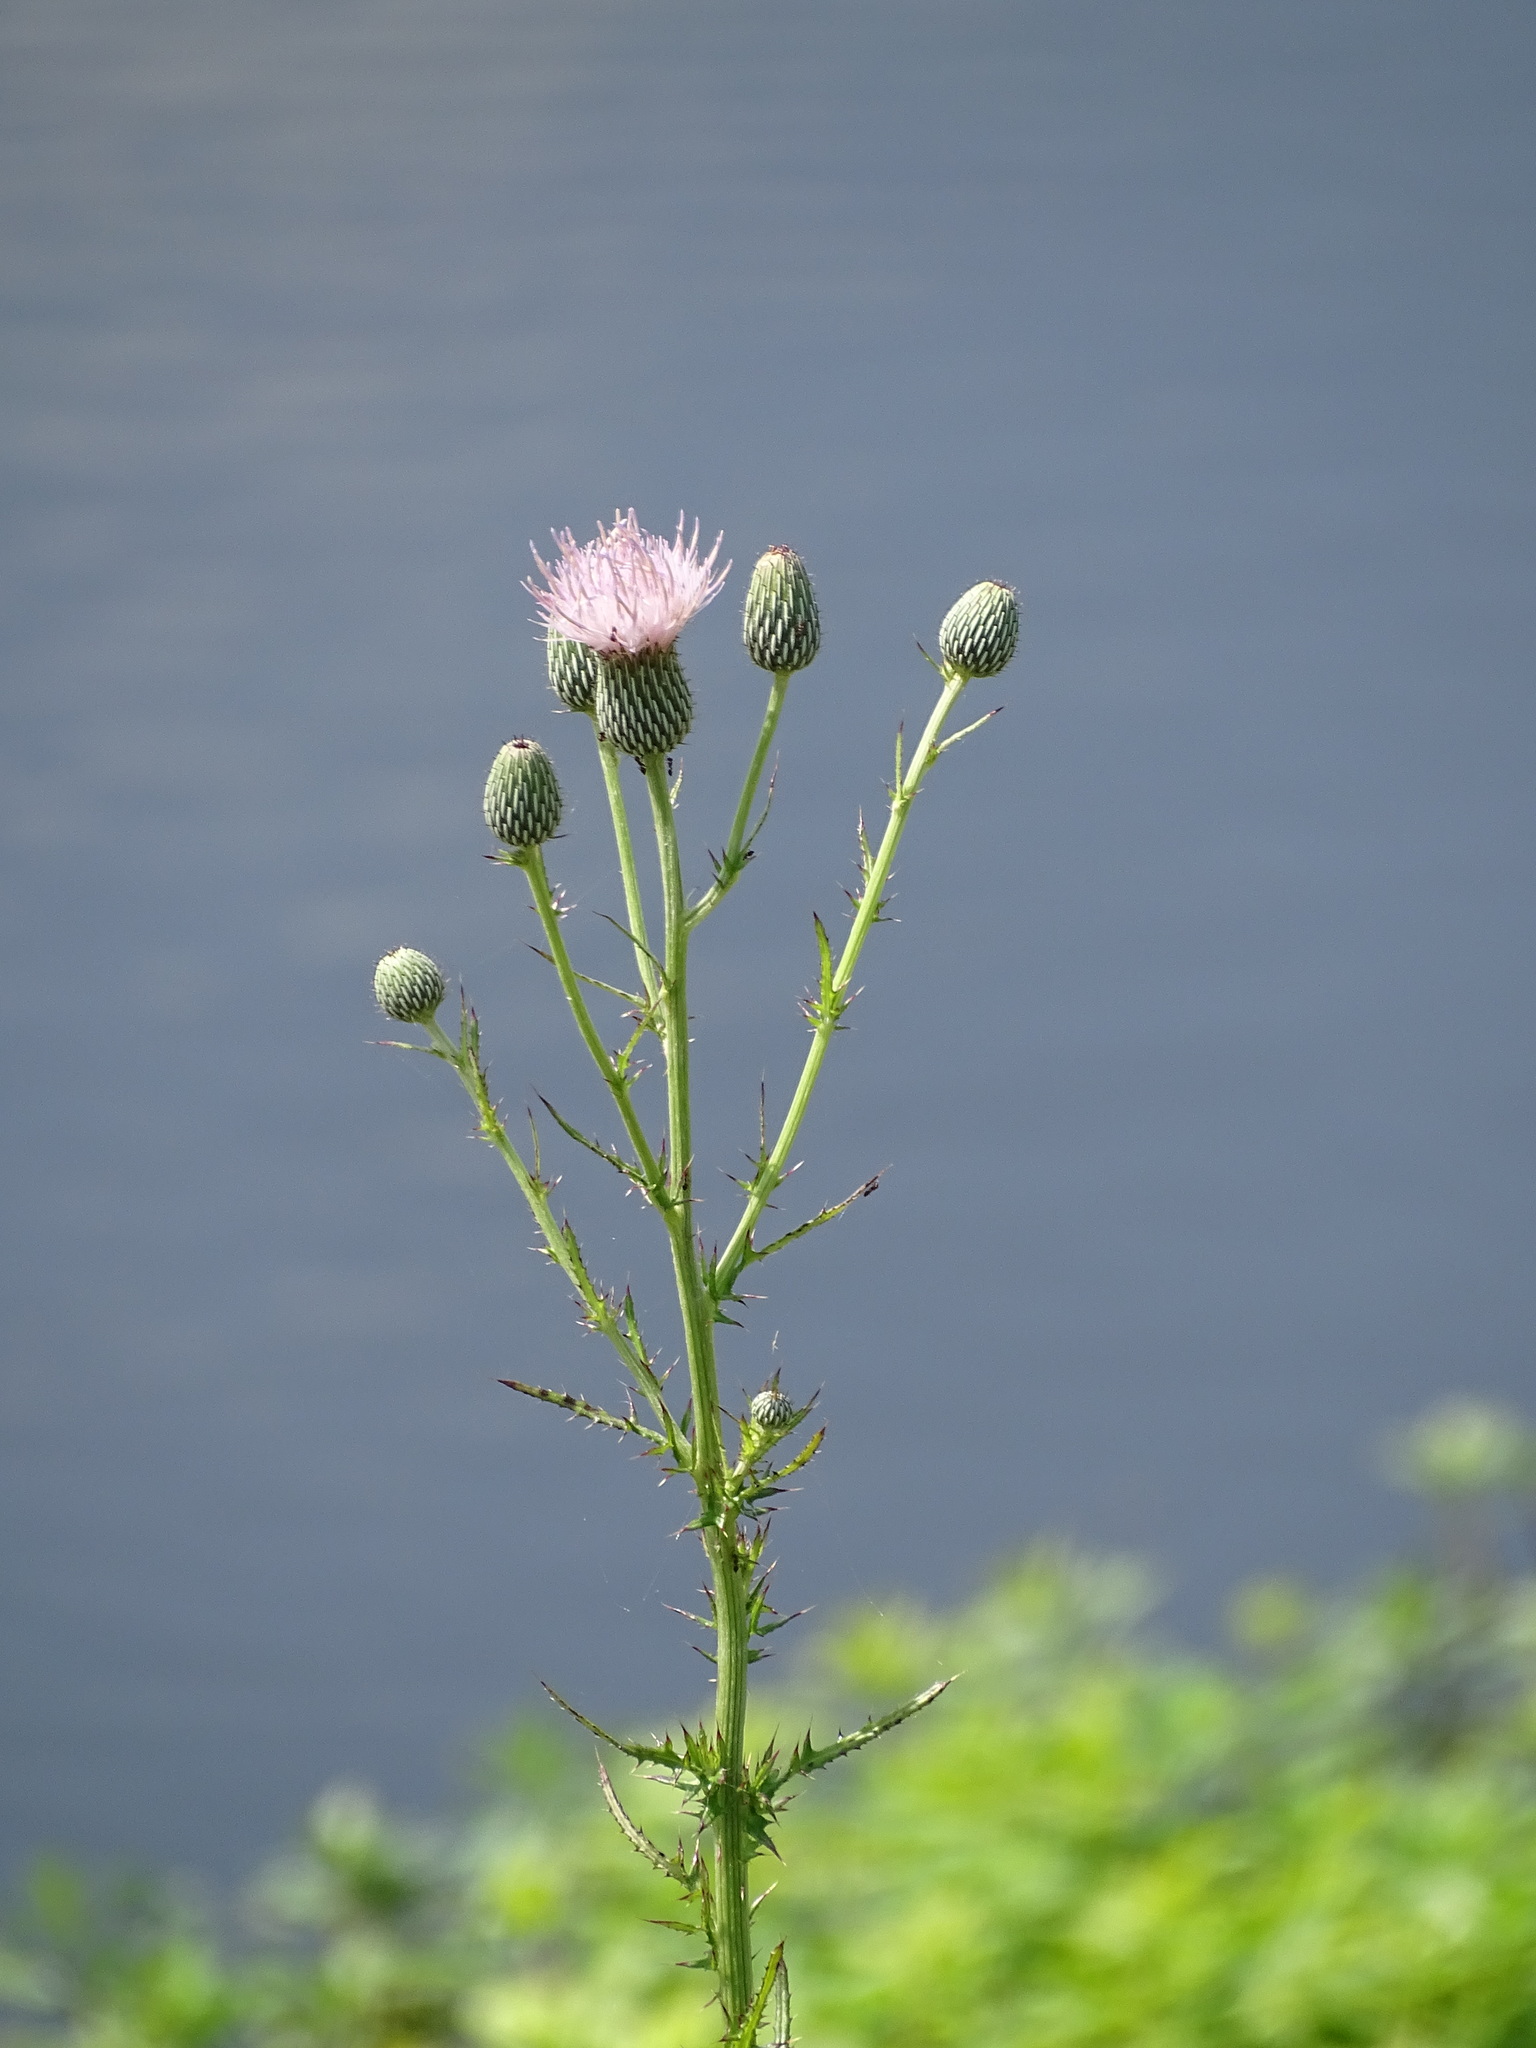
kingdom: Plantae
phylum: Tracheophyta
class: Magnoliopsida
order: Asterales
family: Asteraceae
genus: Cirsium
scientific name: Cirsium nuttalii
